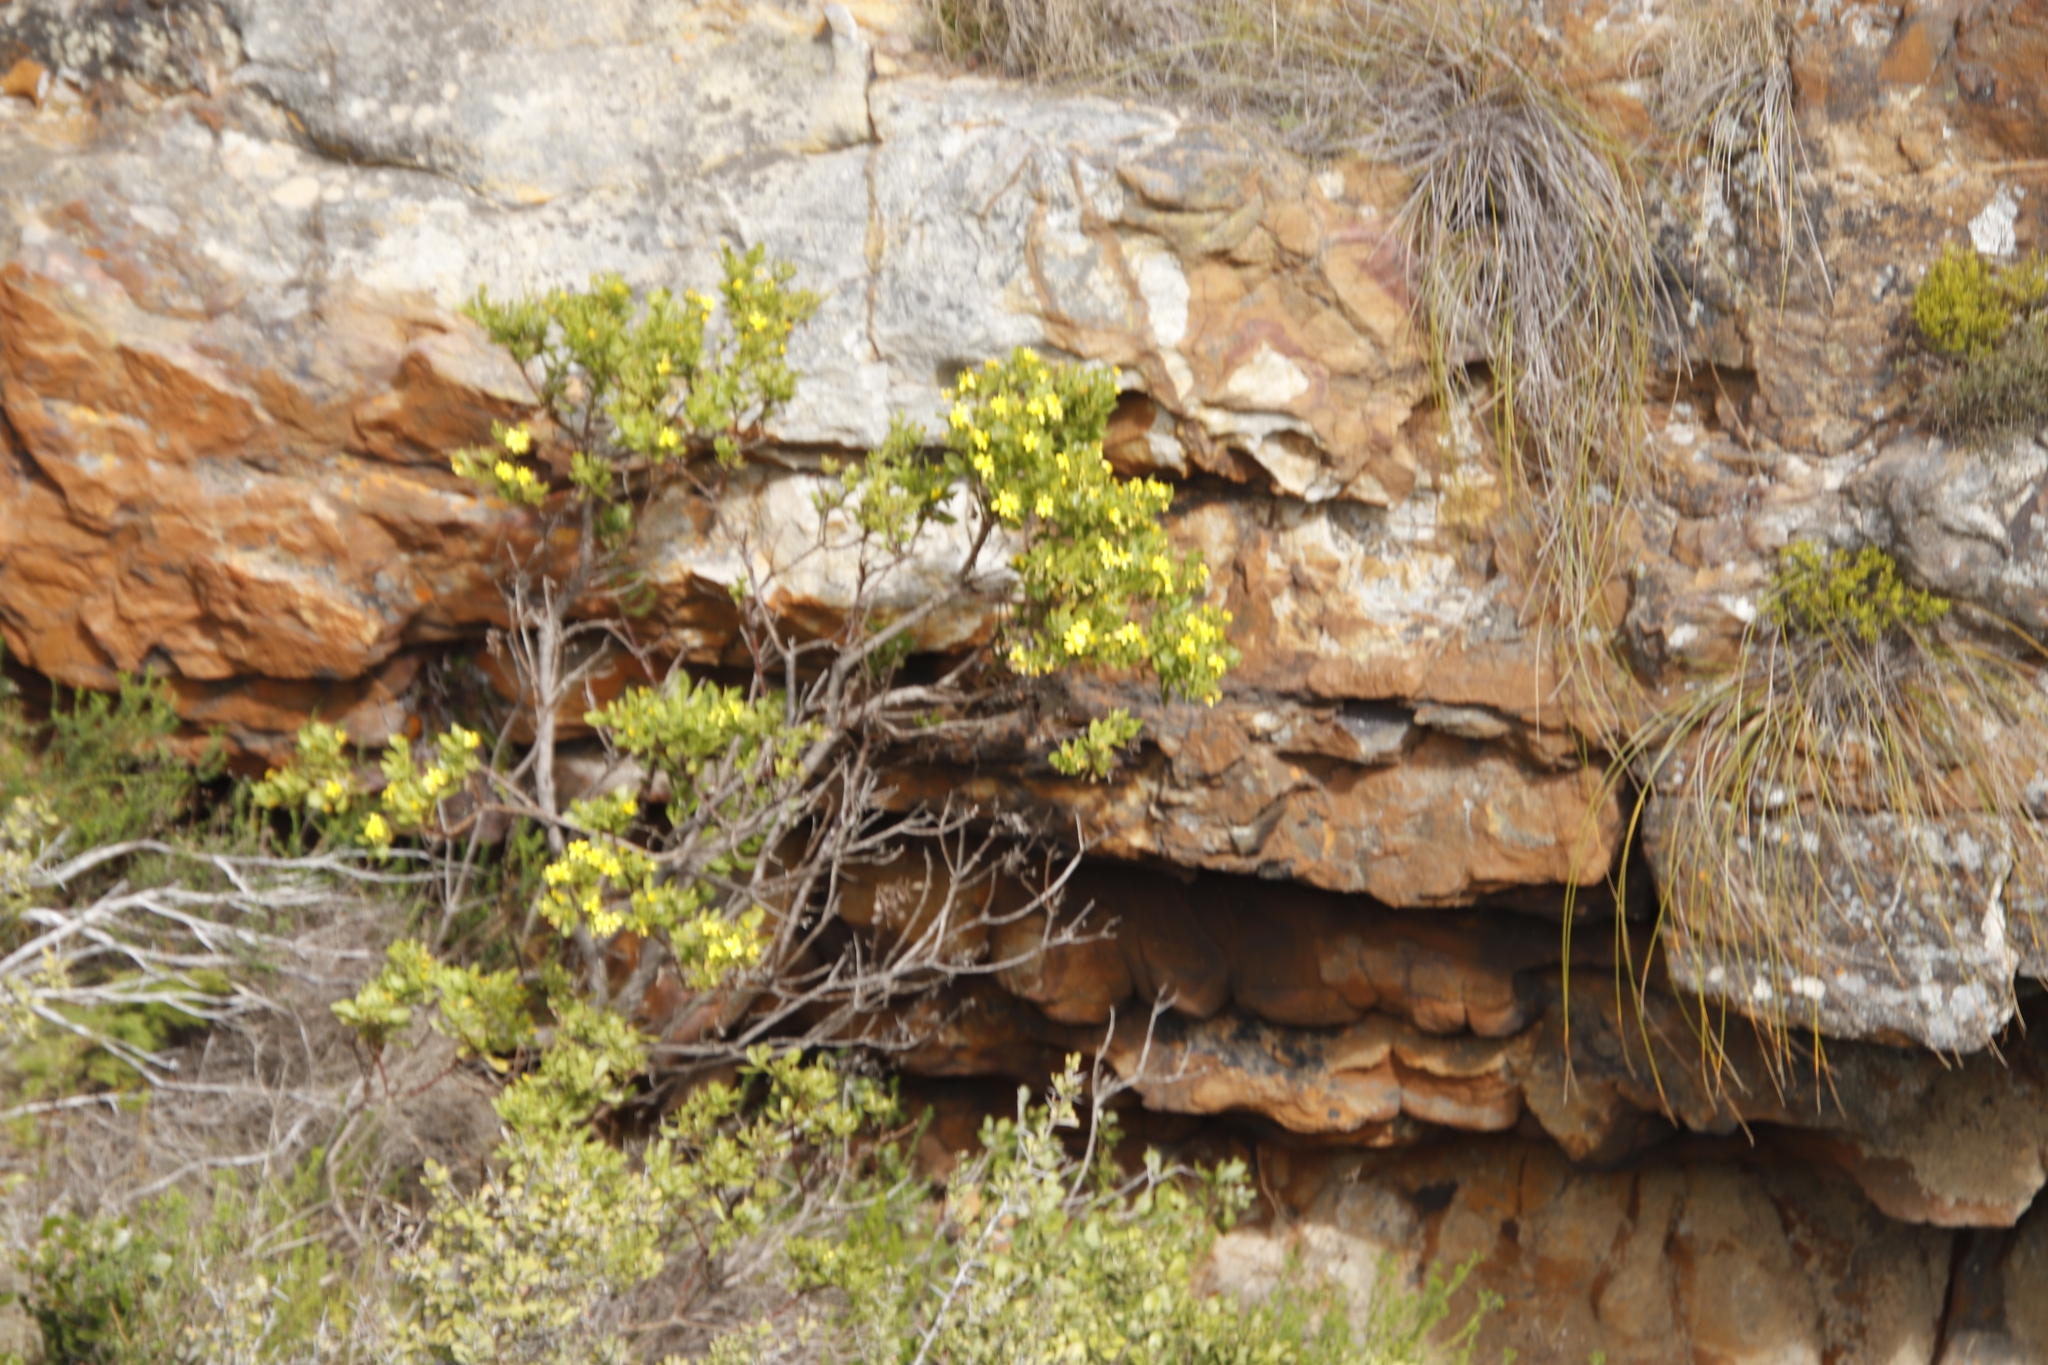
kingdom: Plantae
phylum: Tracheophyta
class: Magnoliopsida
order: Asterales
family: Asteraceae
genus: Osteospermum
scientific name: Osteospermum moniliferum
